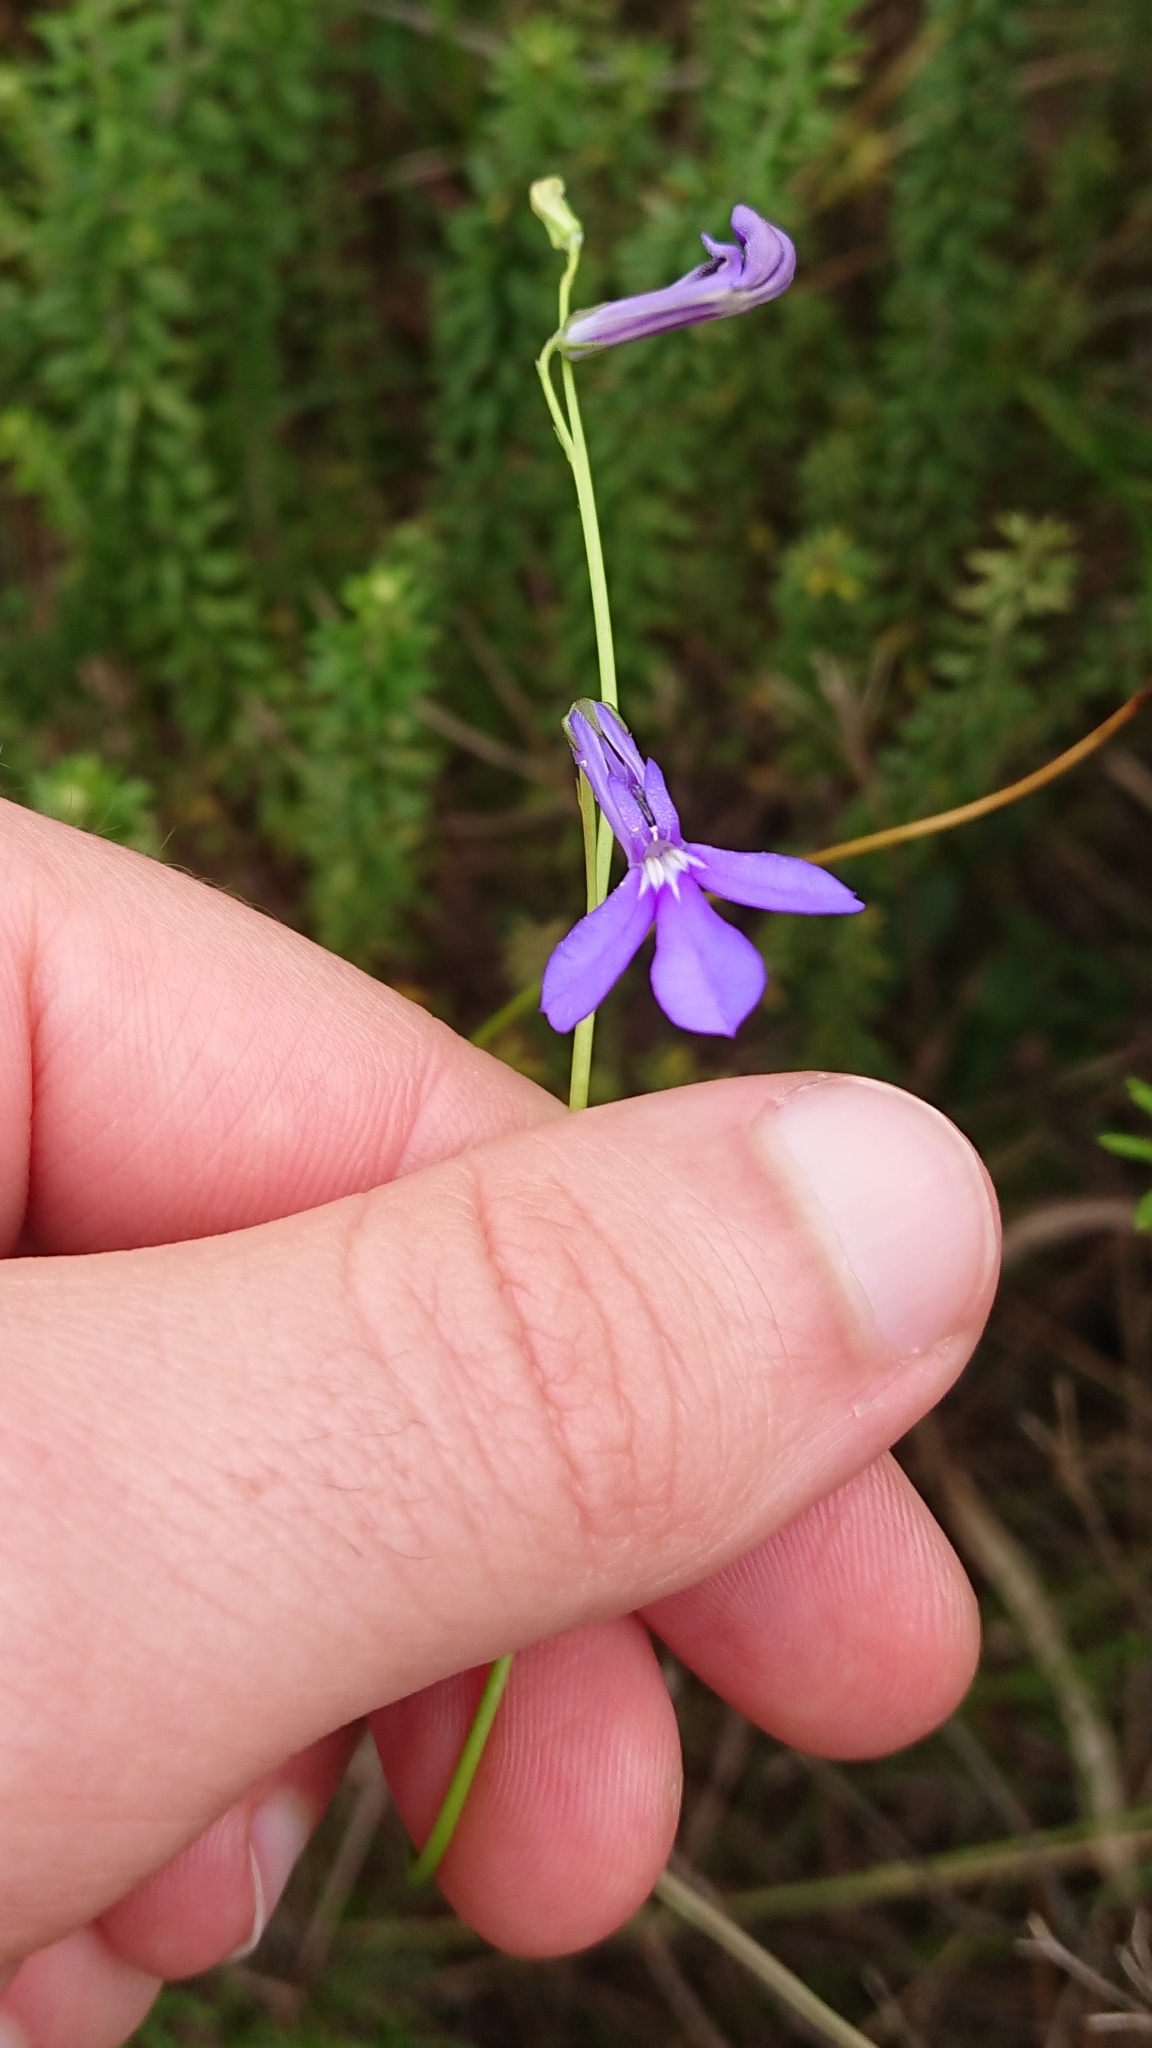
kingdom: Plantae
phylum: Tracheophyta
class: Magnoliopsida
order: Asterales
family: Campanulaceae
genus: Lobelia
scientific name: Lobelia caerulea
